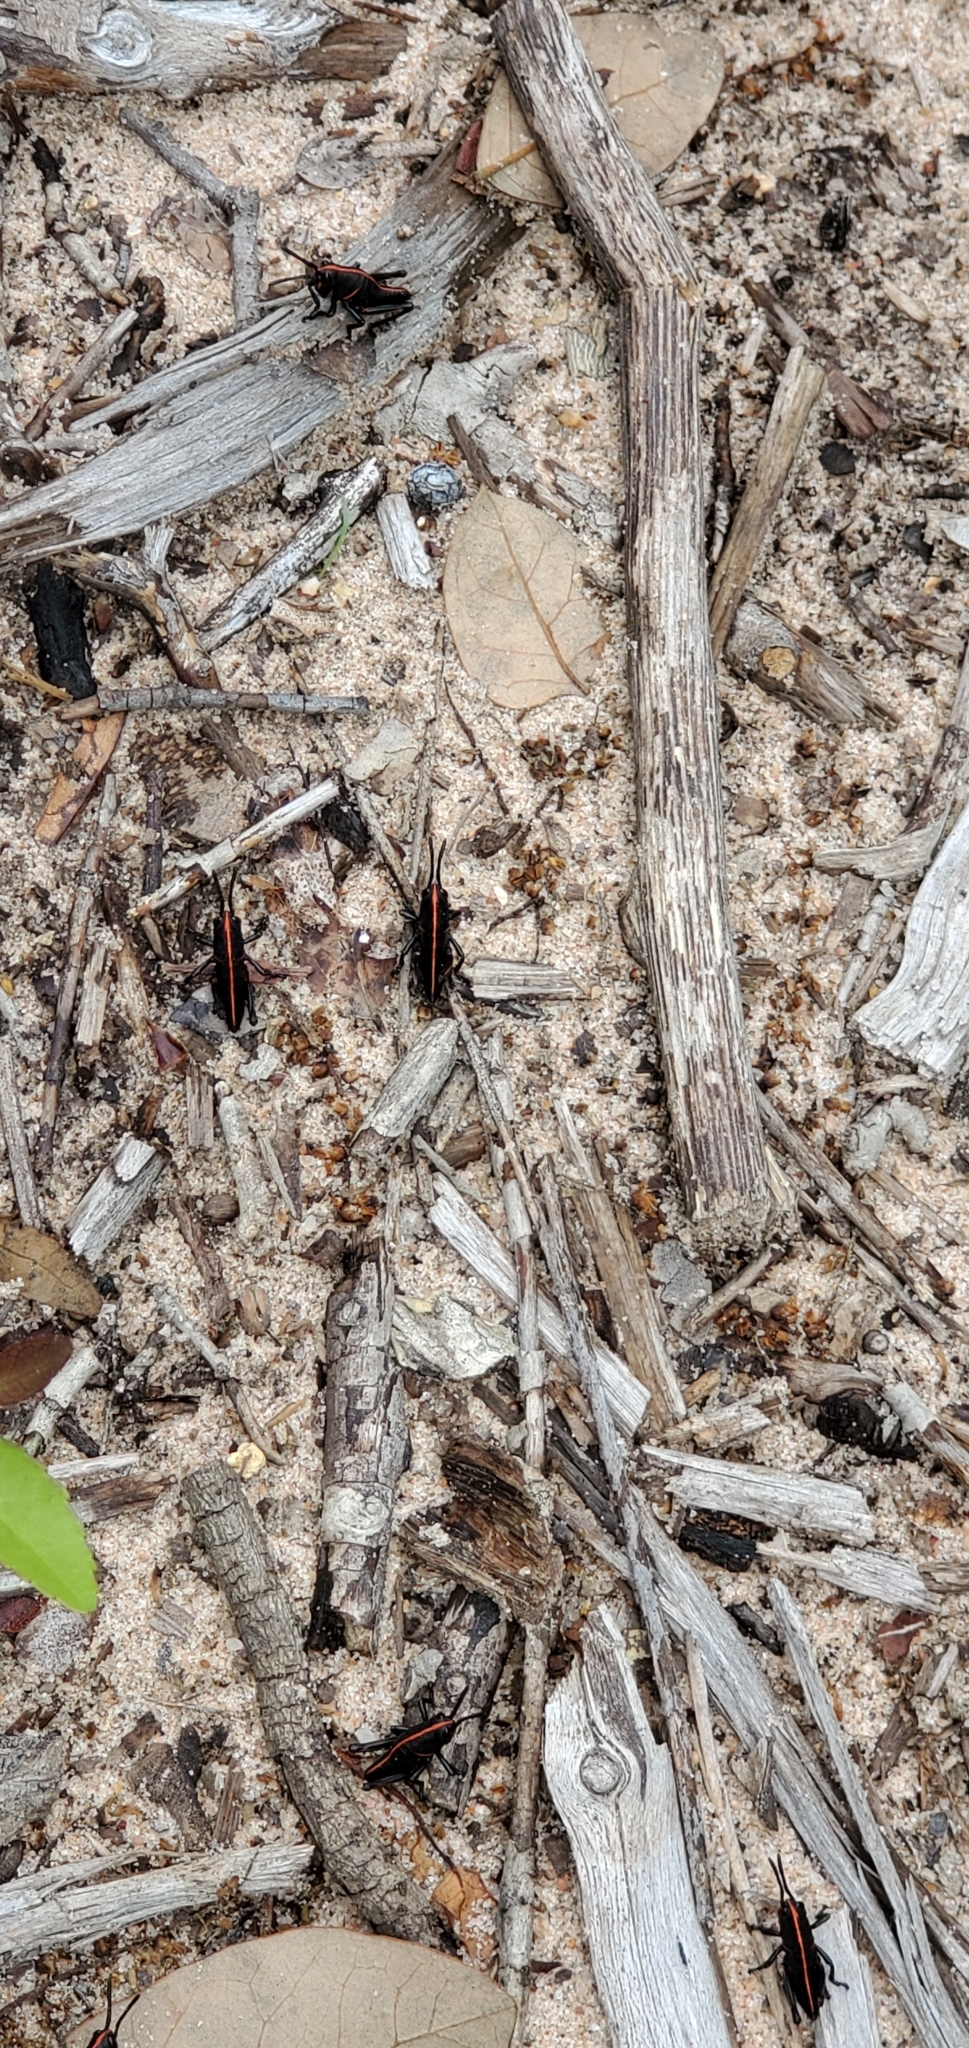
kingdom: Animalia
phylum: Arthropoda
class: Insecta
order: Orthoptera
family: Romaleidae
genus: Romalea
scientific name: Romalea microptera
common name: Eastern lubber grasshopper
